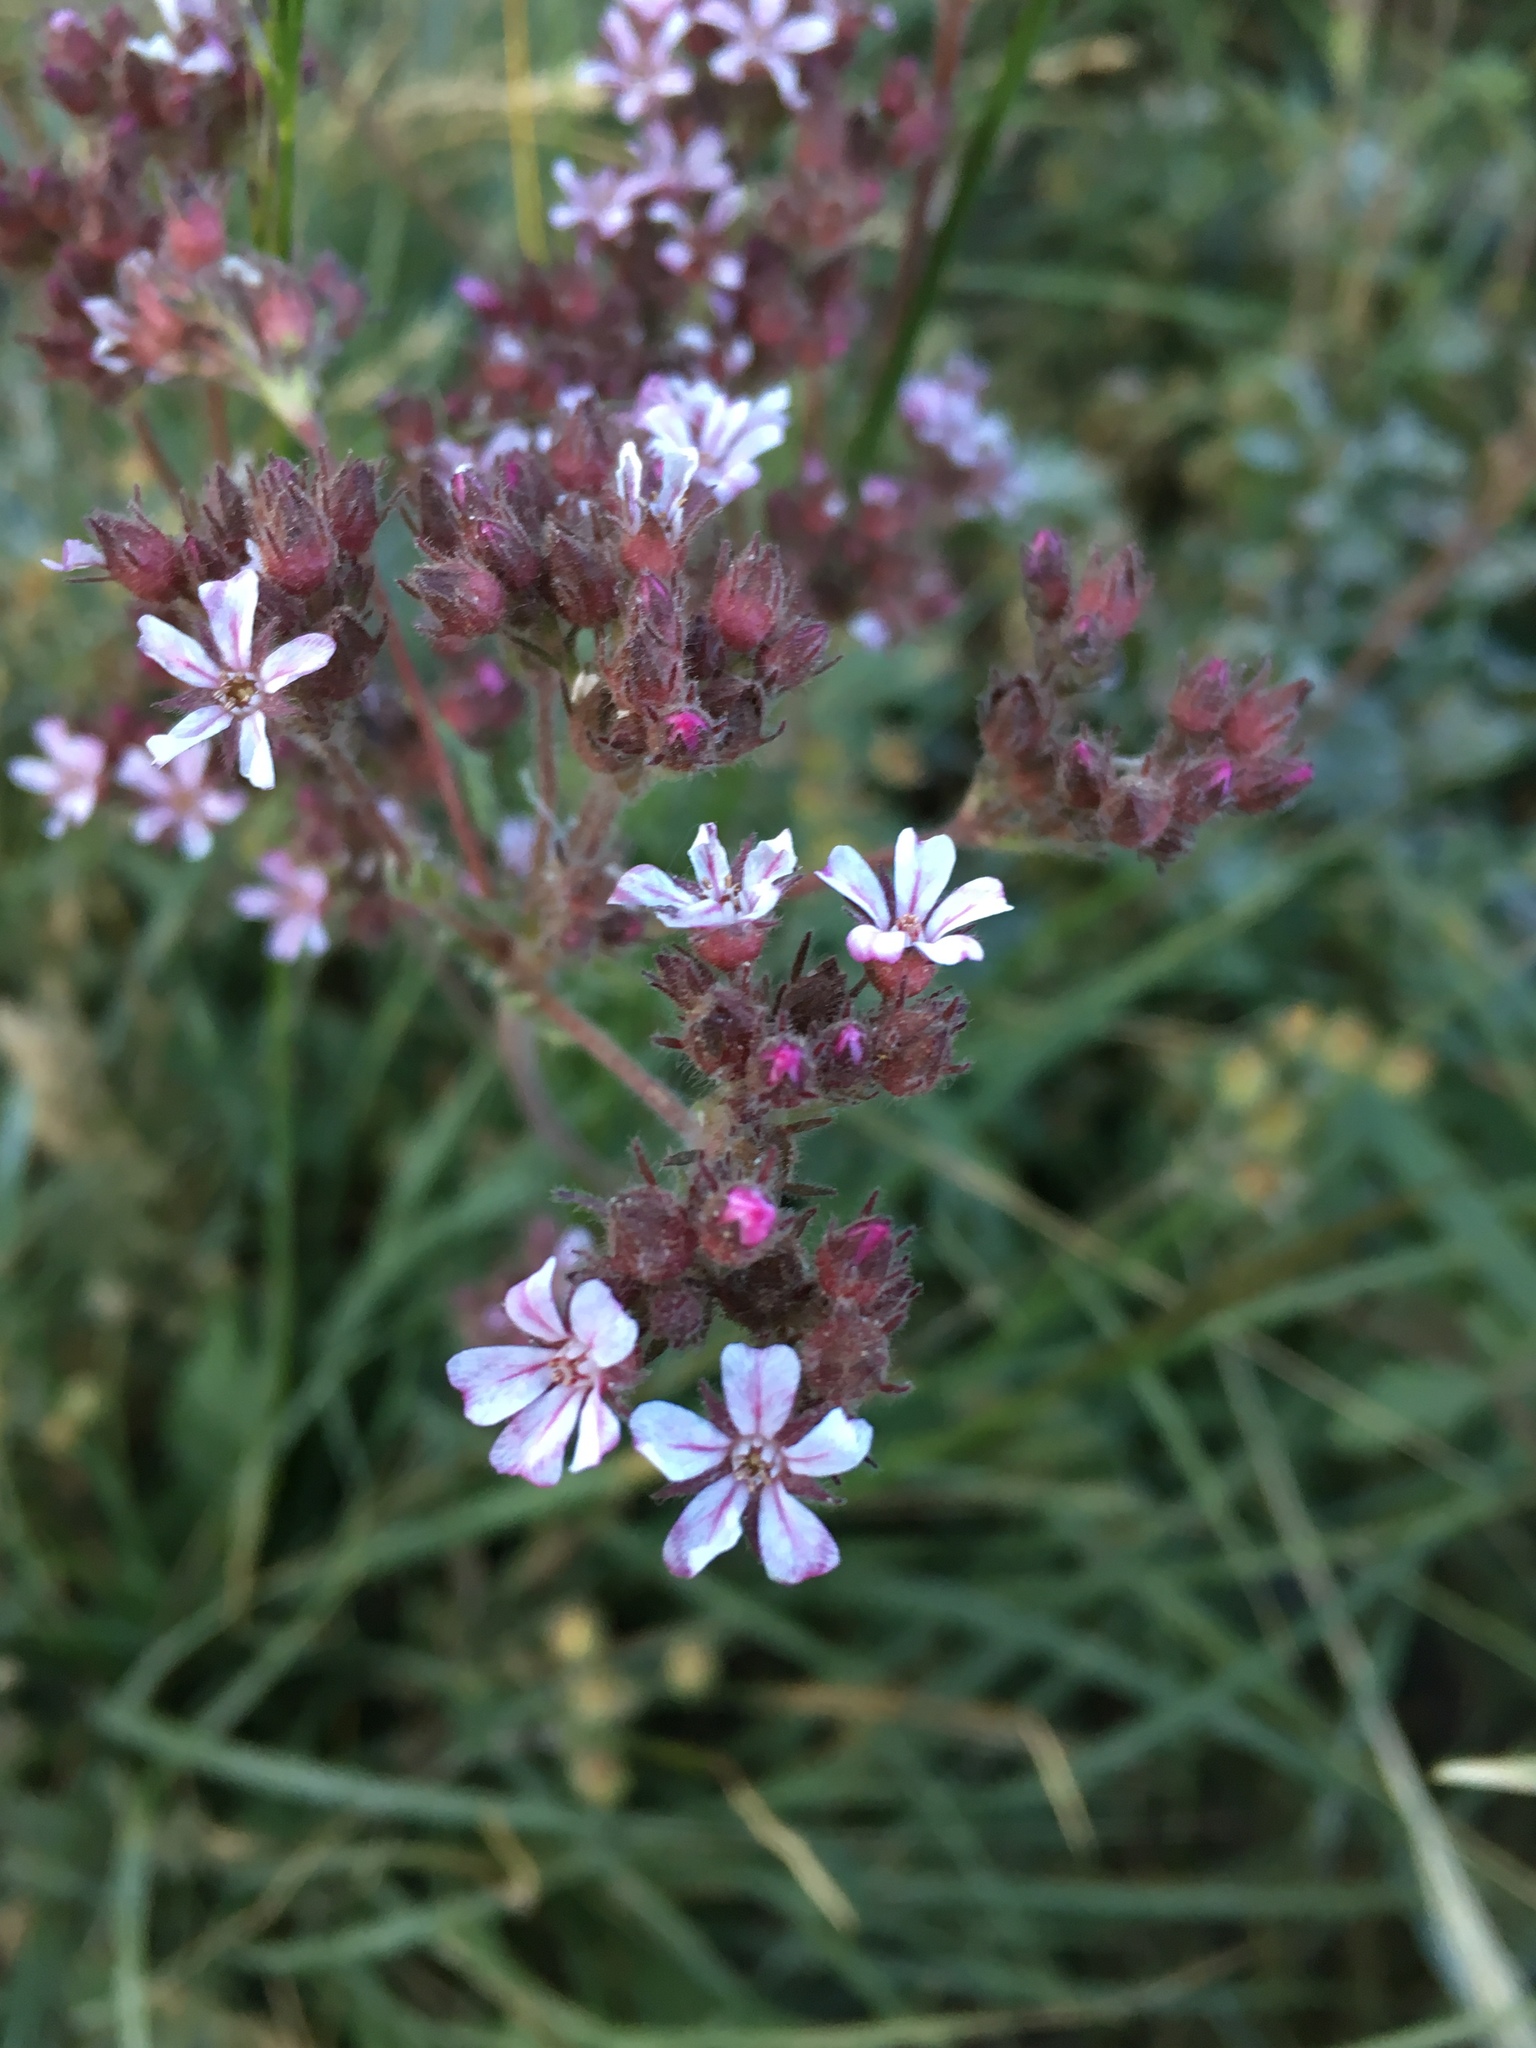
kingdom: Plantae
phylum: Tracheophyta
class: Magnoliopsida
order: Rosales
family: Rosaceae
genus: Potentilla
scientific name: Potentilla douglasii
